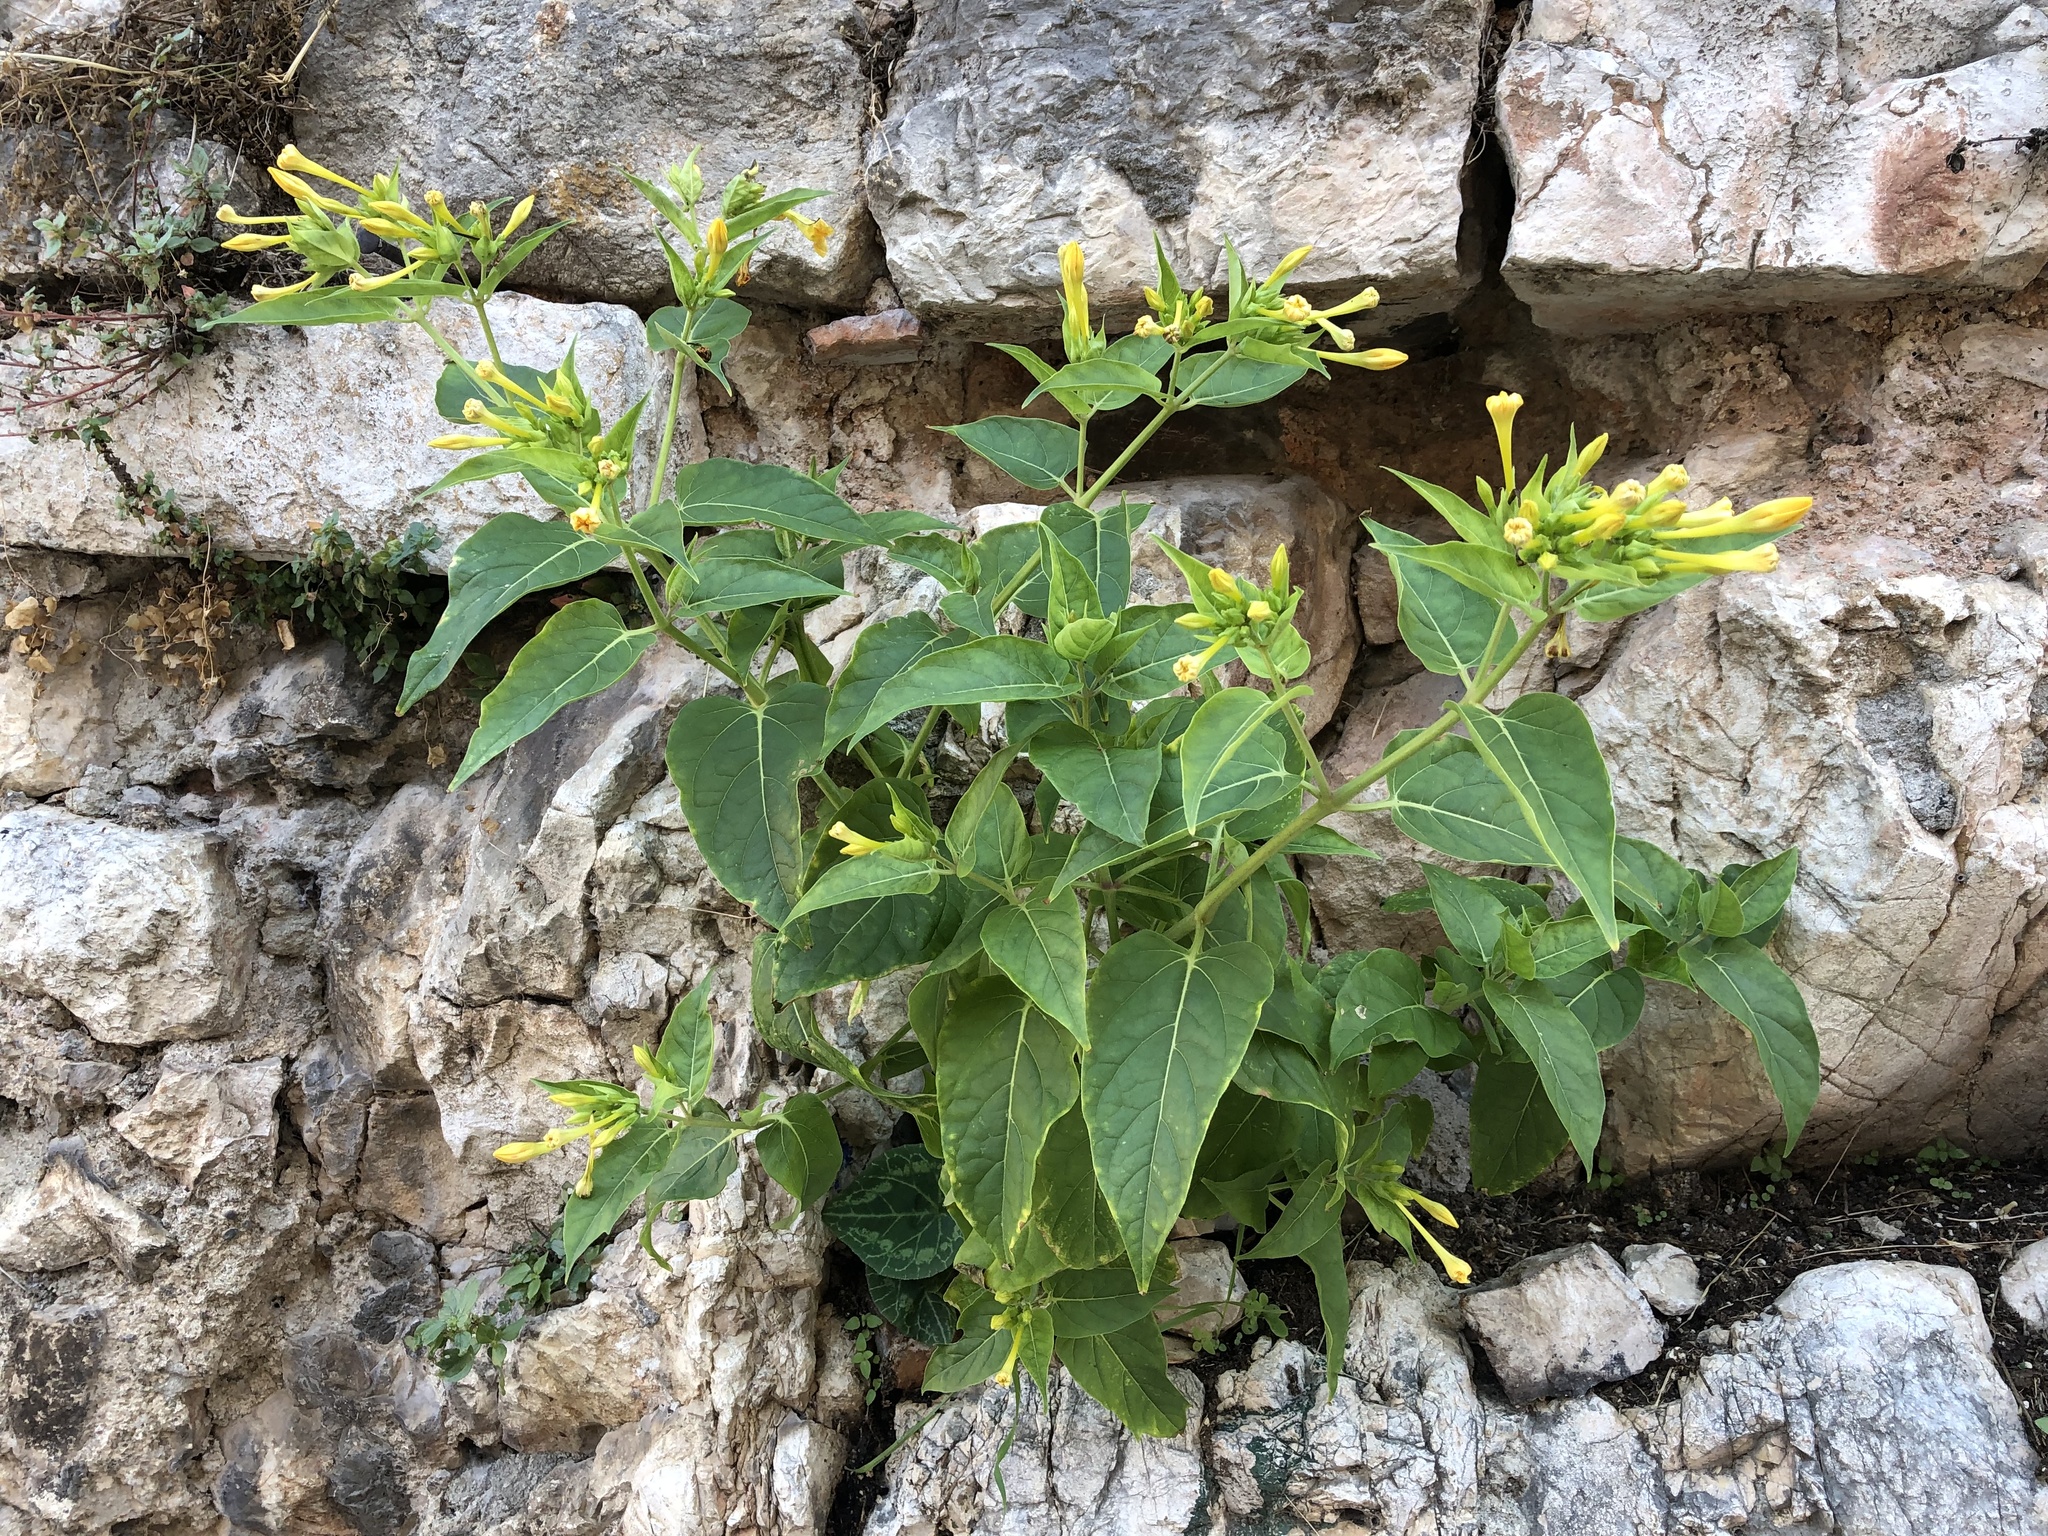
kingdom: Plantae
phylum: Tracheophyta
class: Magnoliopsida
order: Caryophyllales
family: Nyctaginaceae
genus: Mirabilis
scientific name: Mirabilis jalapa
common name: Marvel-of-peru
